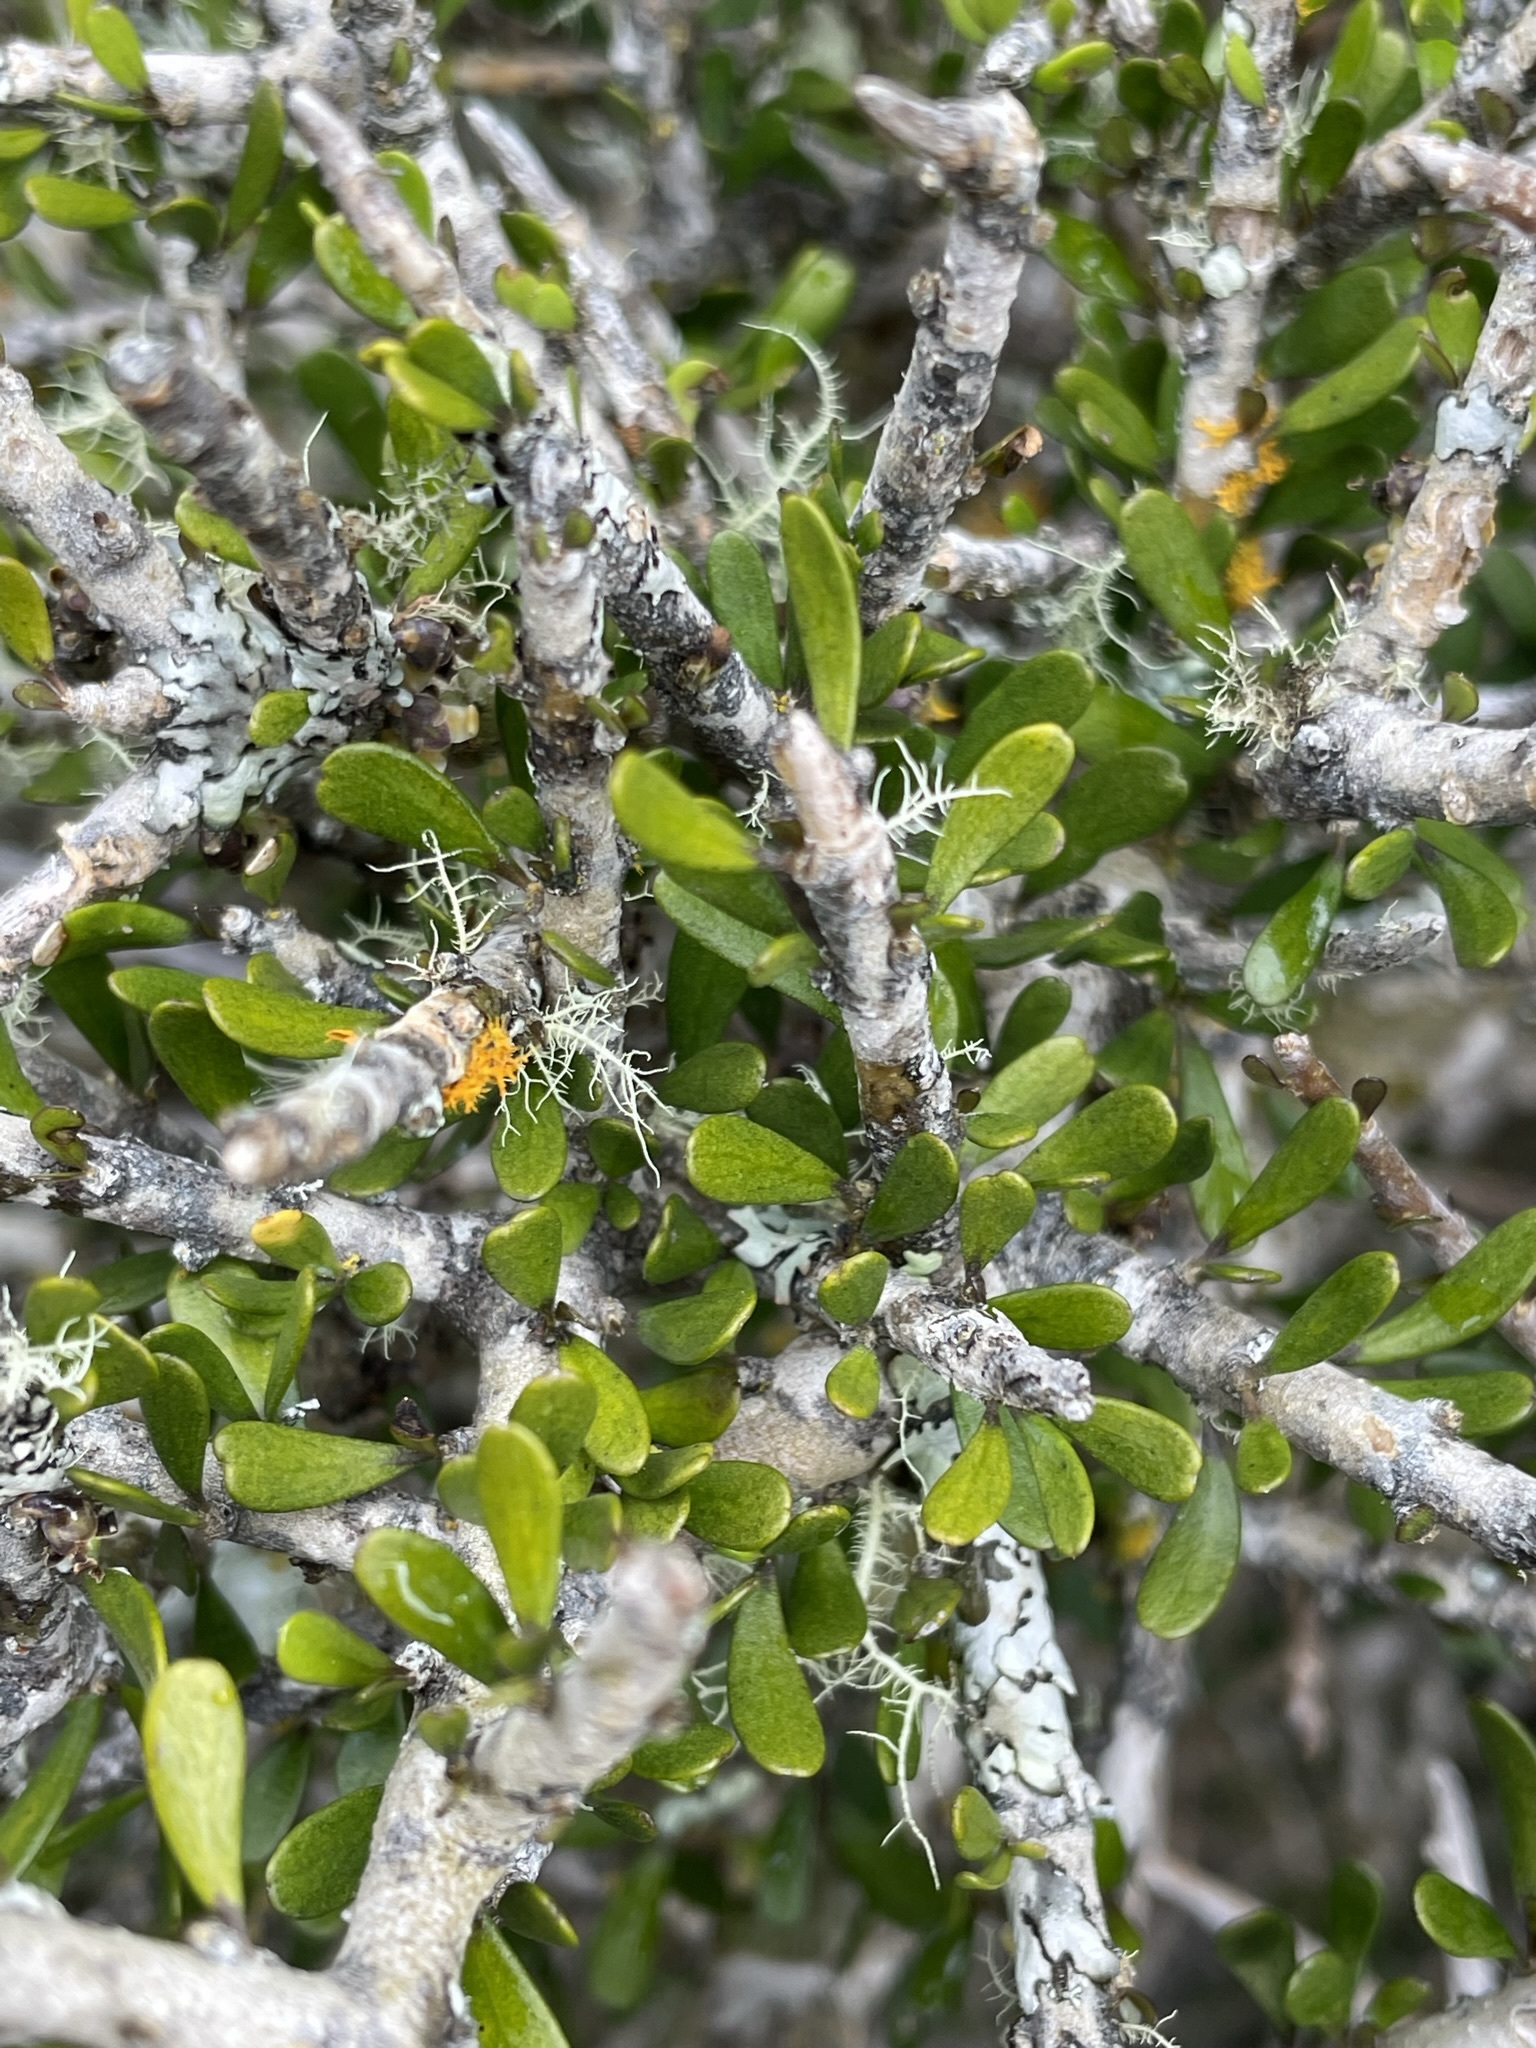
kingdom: Plantae
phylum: Tracheophyta
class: Magnoliopsida
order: Malpighiales
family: Violaceae
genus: Melicytus
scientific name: Melicytus alpinus
